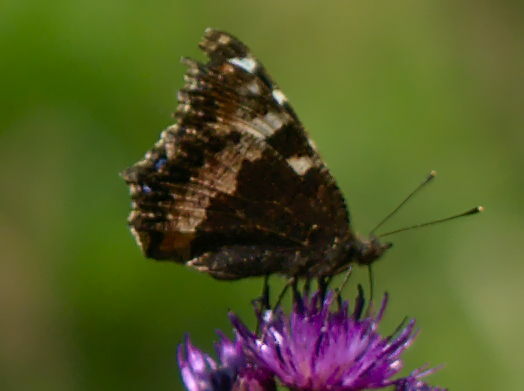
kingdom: Animalia
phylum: Arthropoda
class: Insecta
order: Lepidoptera
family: Nymphalidae
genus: Aglais
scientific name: Aglais urticae
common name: Small tortoiseshell
